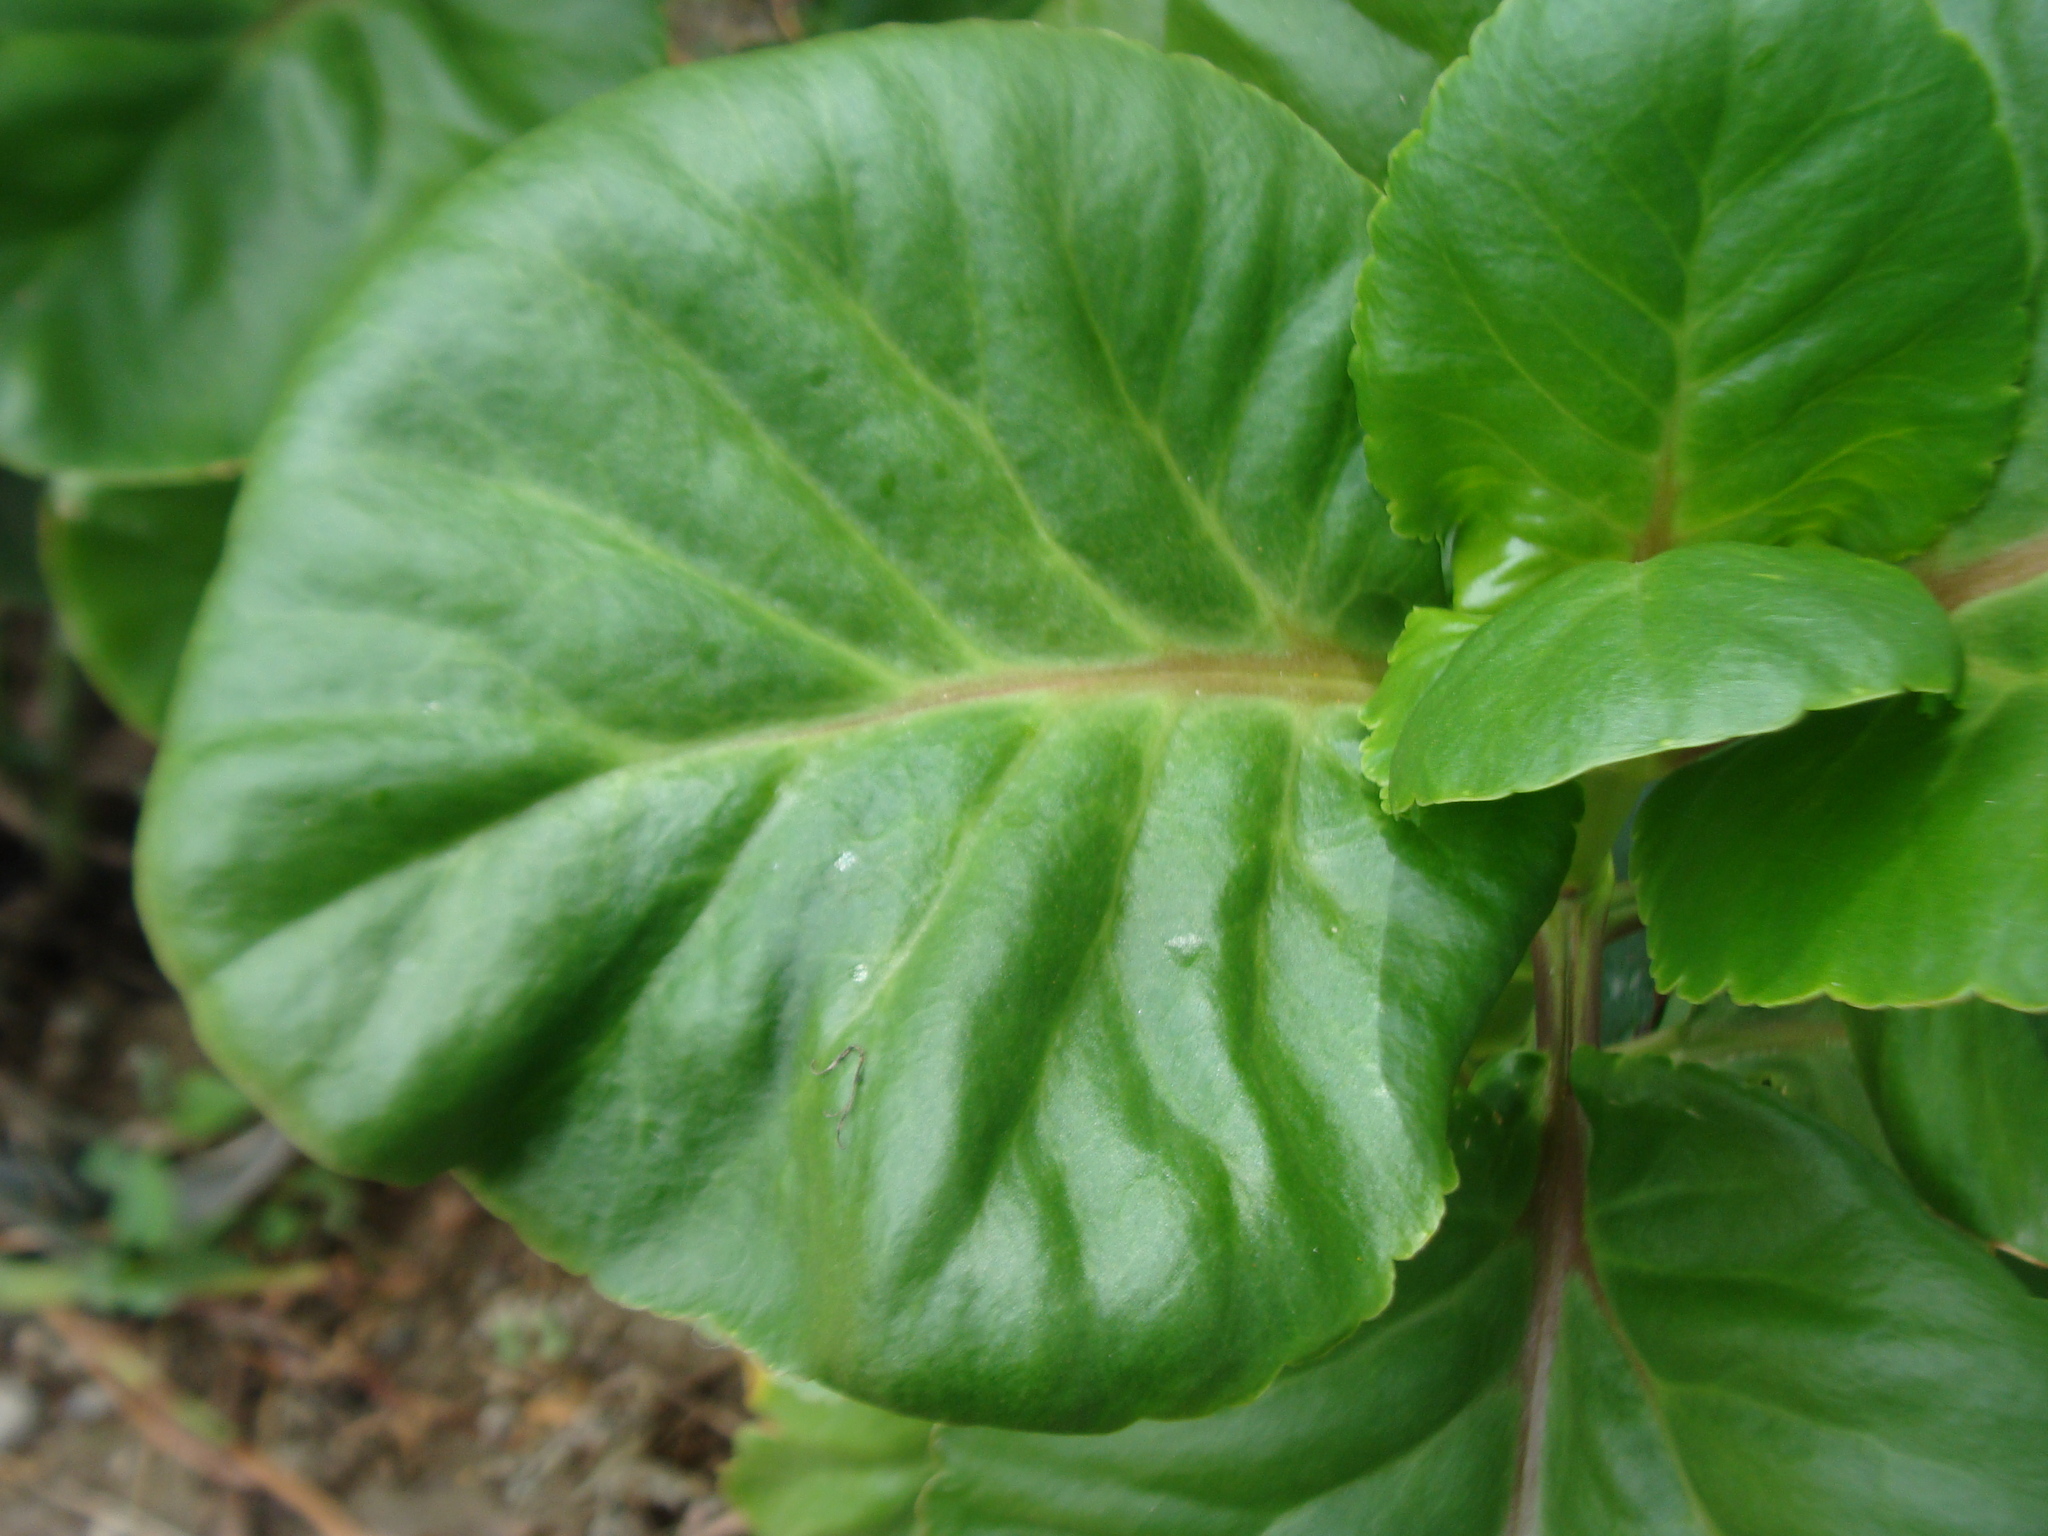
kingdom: Plantae
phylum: Tracheophyta
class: Magnoliopsida
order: Saxifragales
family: Crassulaceae
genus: Kalanchoe
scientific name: Kalanchoe laciniata
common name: Christmastree plant
